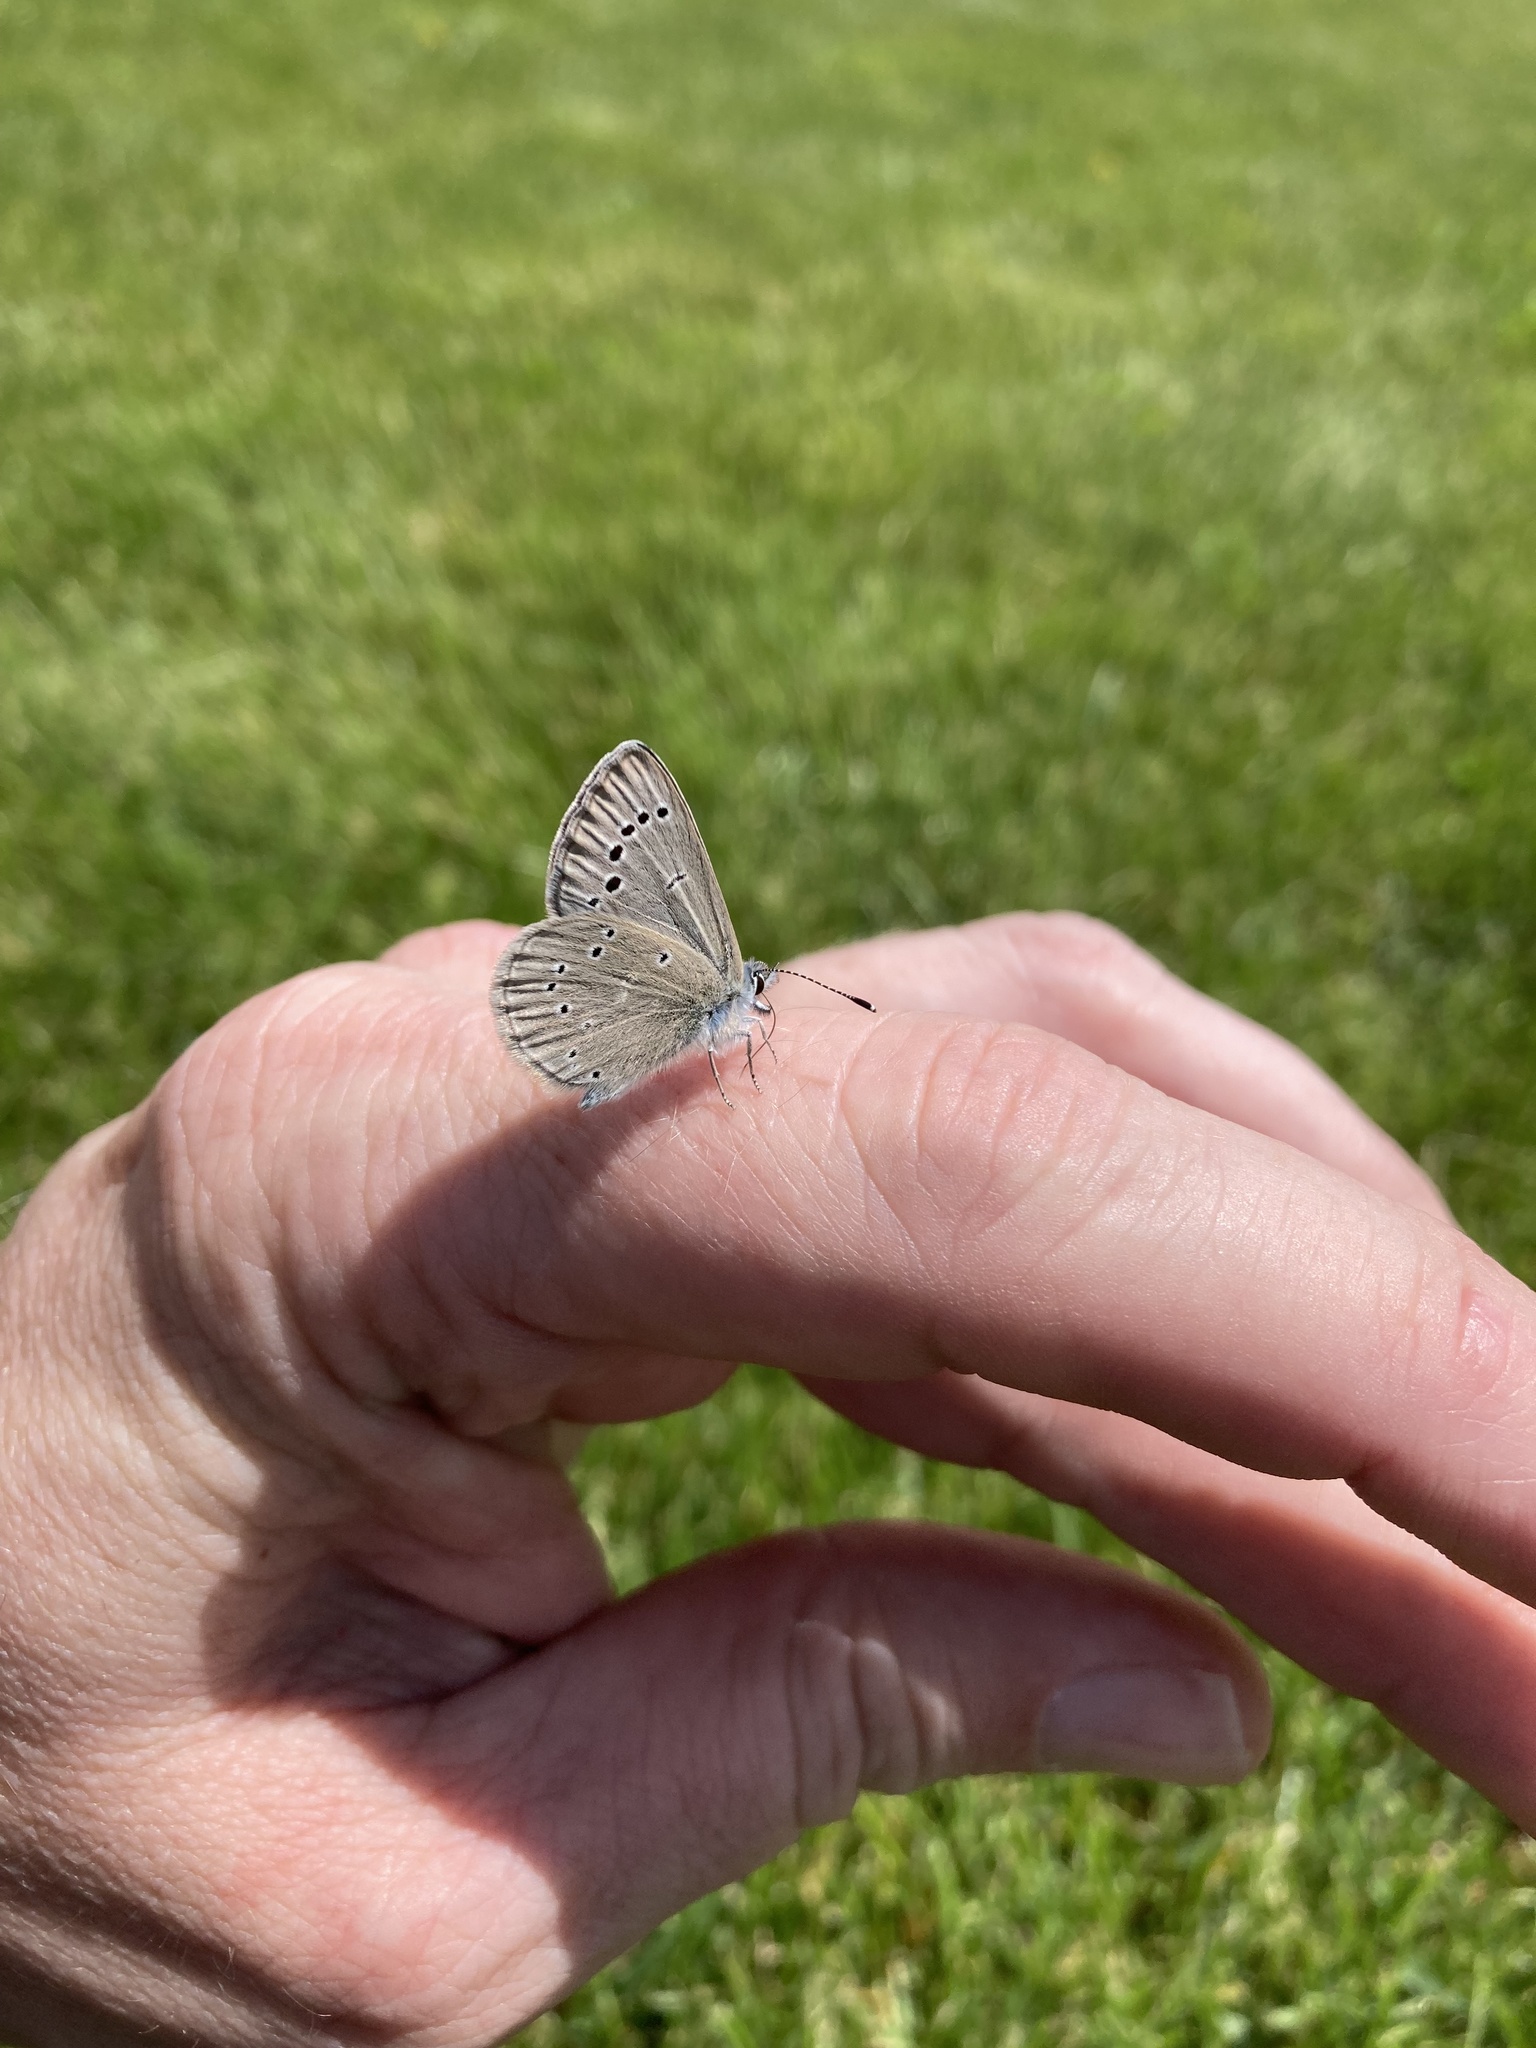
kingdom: Animalia
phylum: Arthropoda
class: Insecta
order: Lepidoptera
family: Lycaenidae
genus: Glaucopsyche
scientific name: Glaucopsyche lygdamus
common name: Silvery blue
